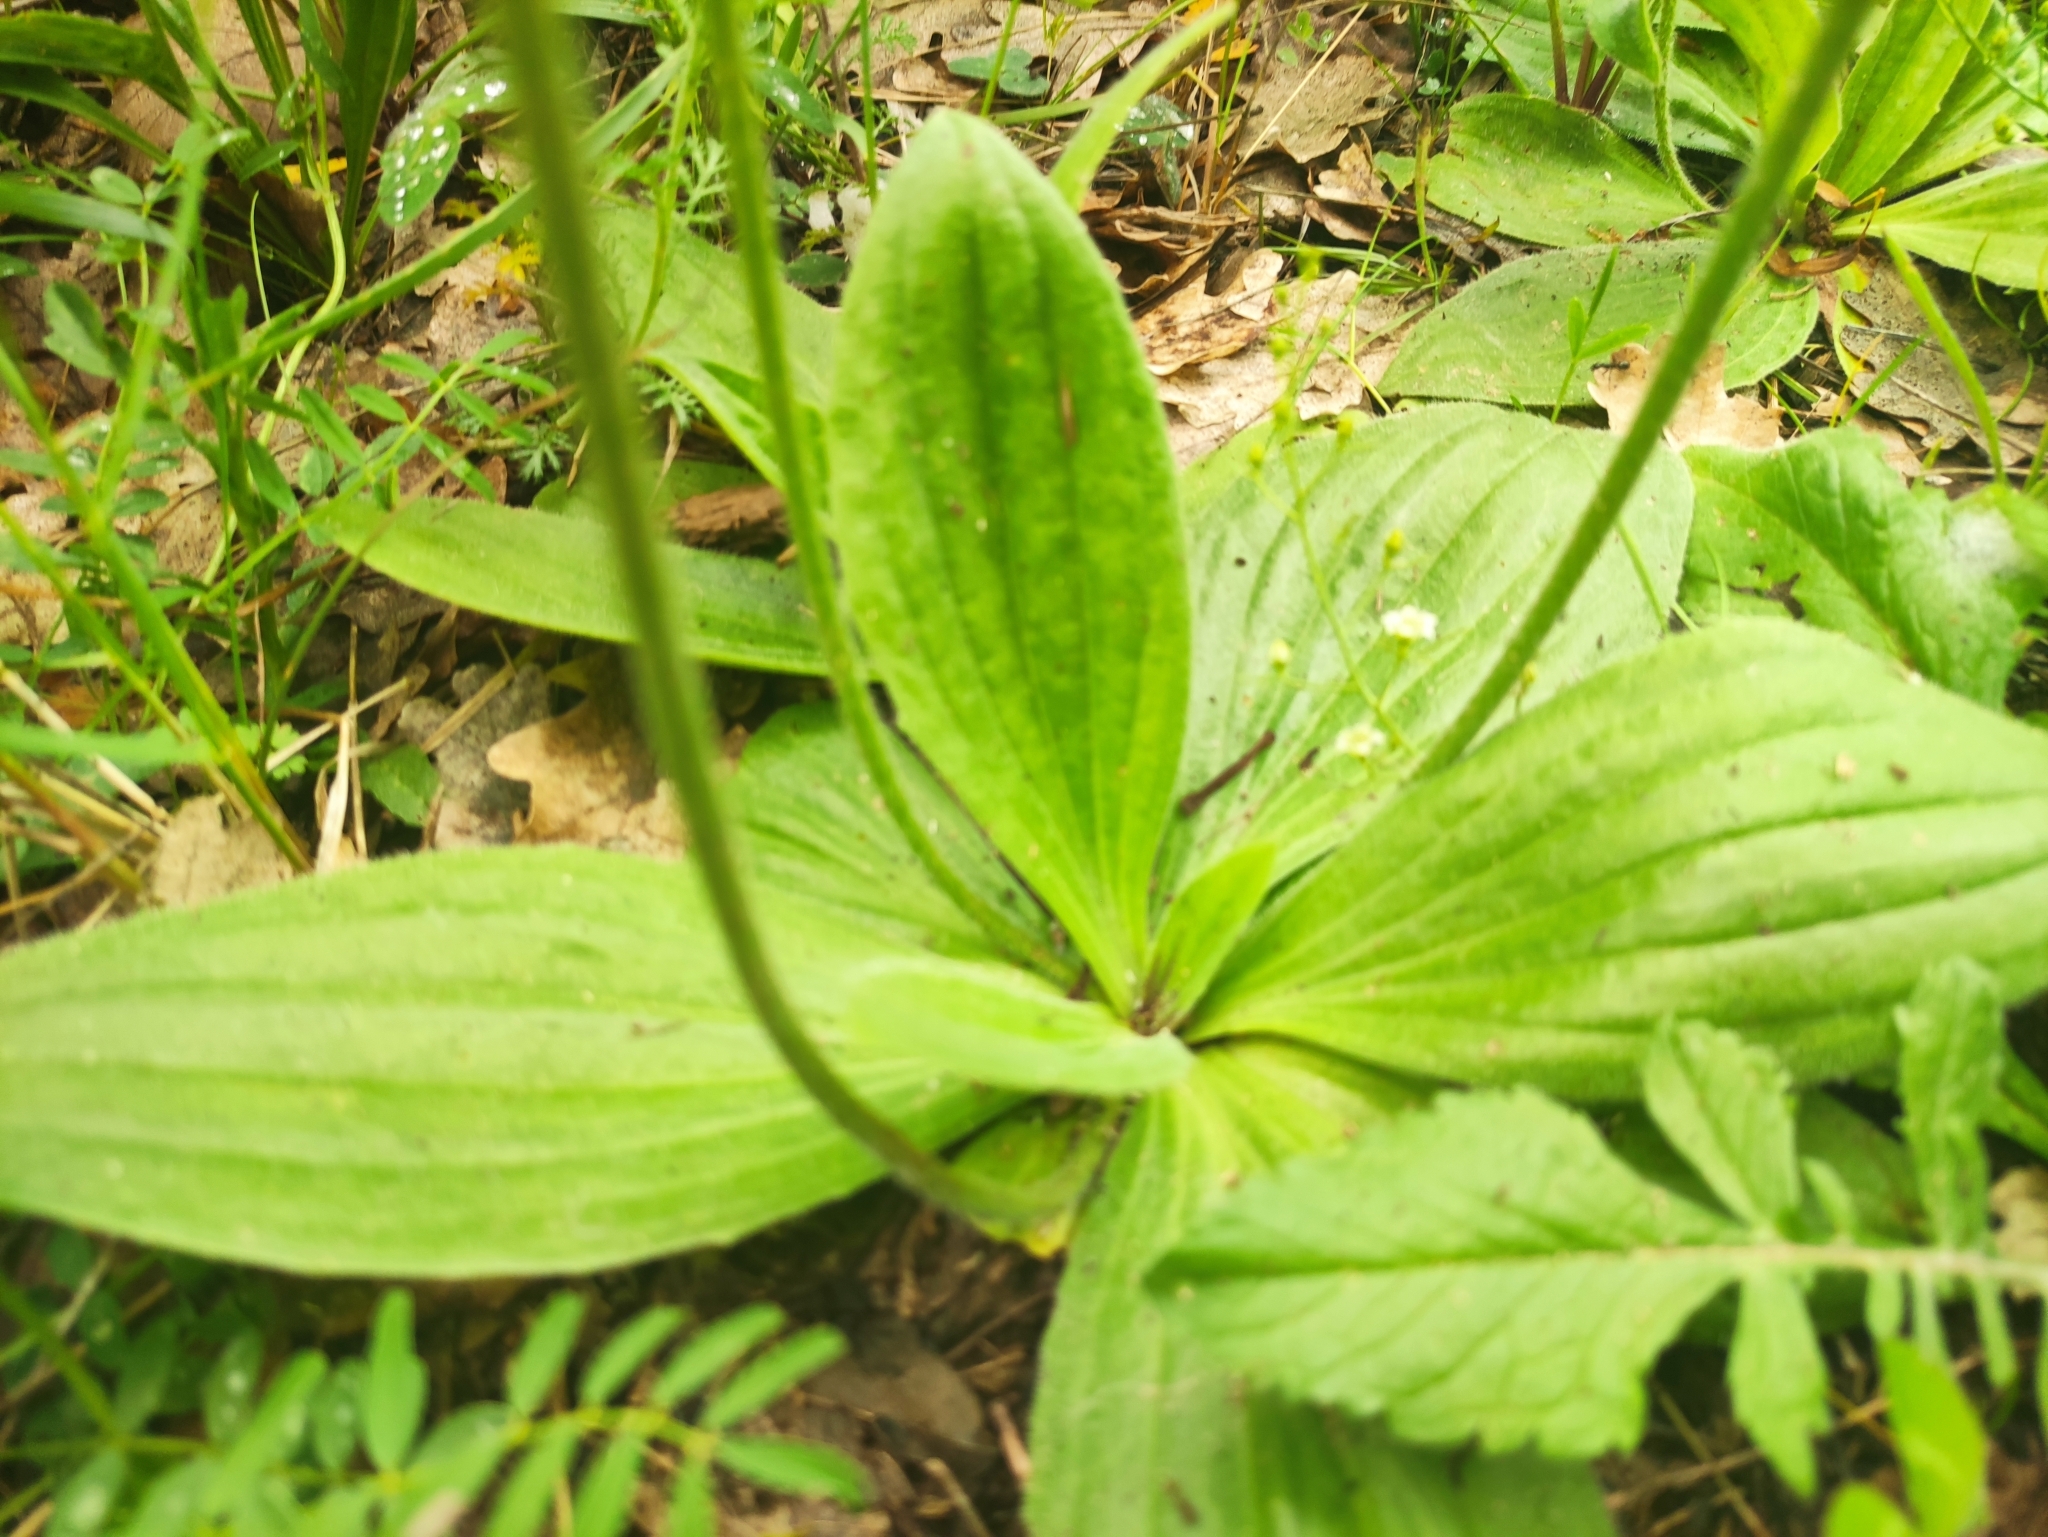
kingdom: Plantae
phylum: Tracheophyta
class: Magnoliopsida
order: Lamiales
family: Plantaginaceae
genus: Plantago
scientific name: Plantago media
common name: Hoary plantain
